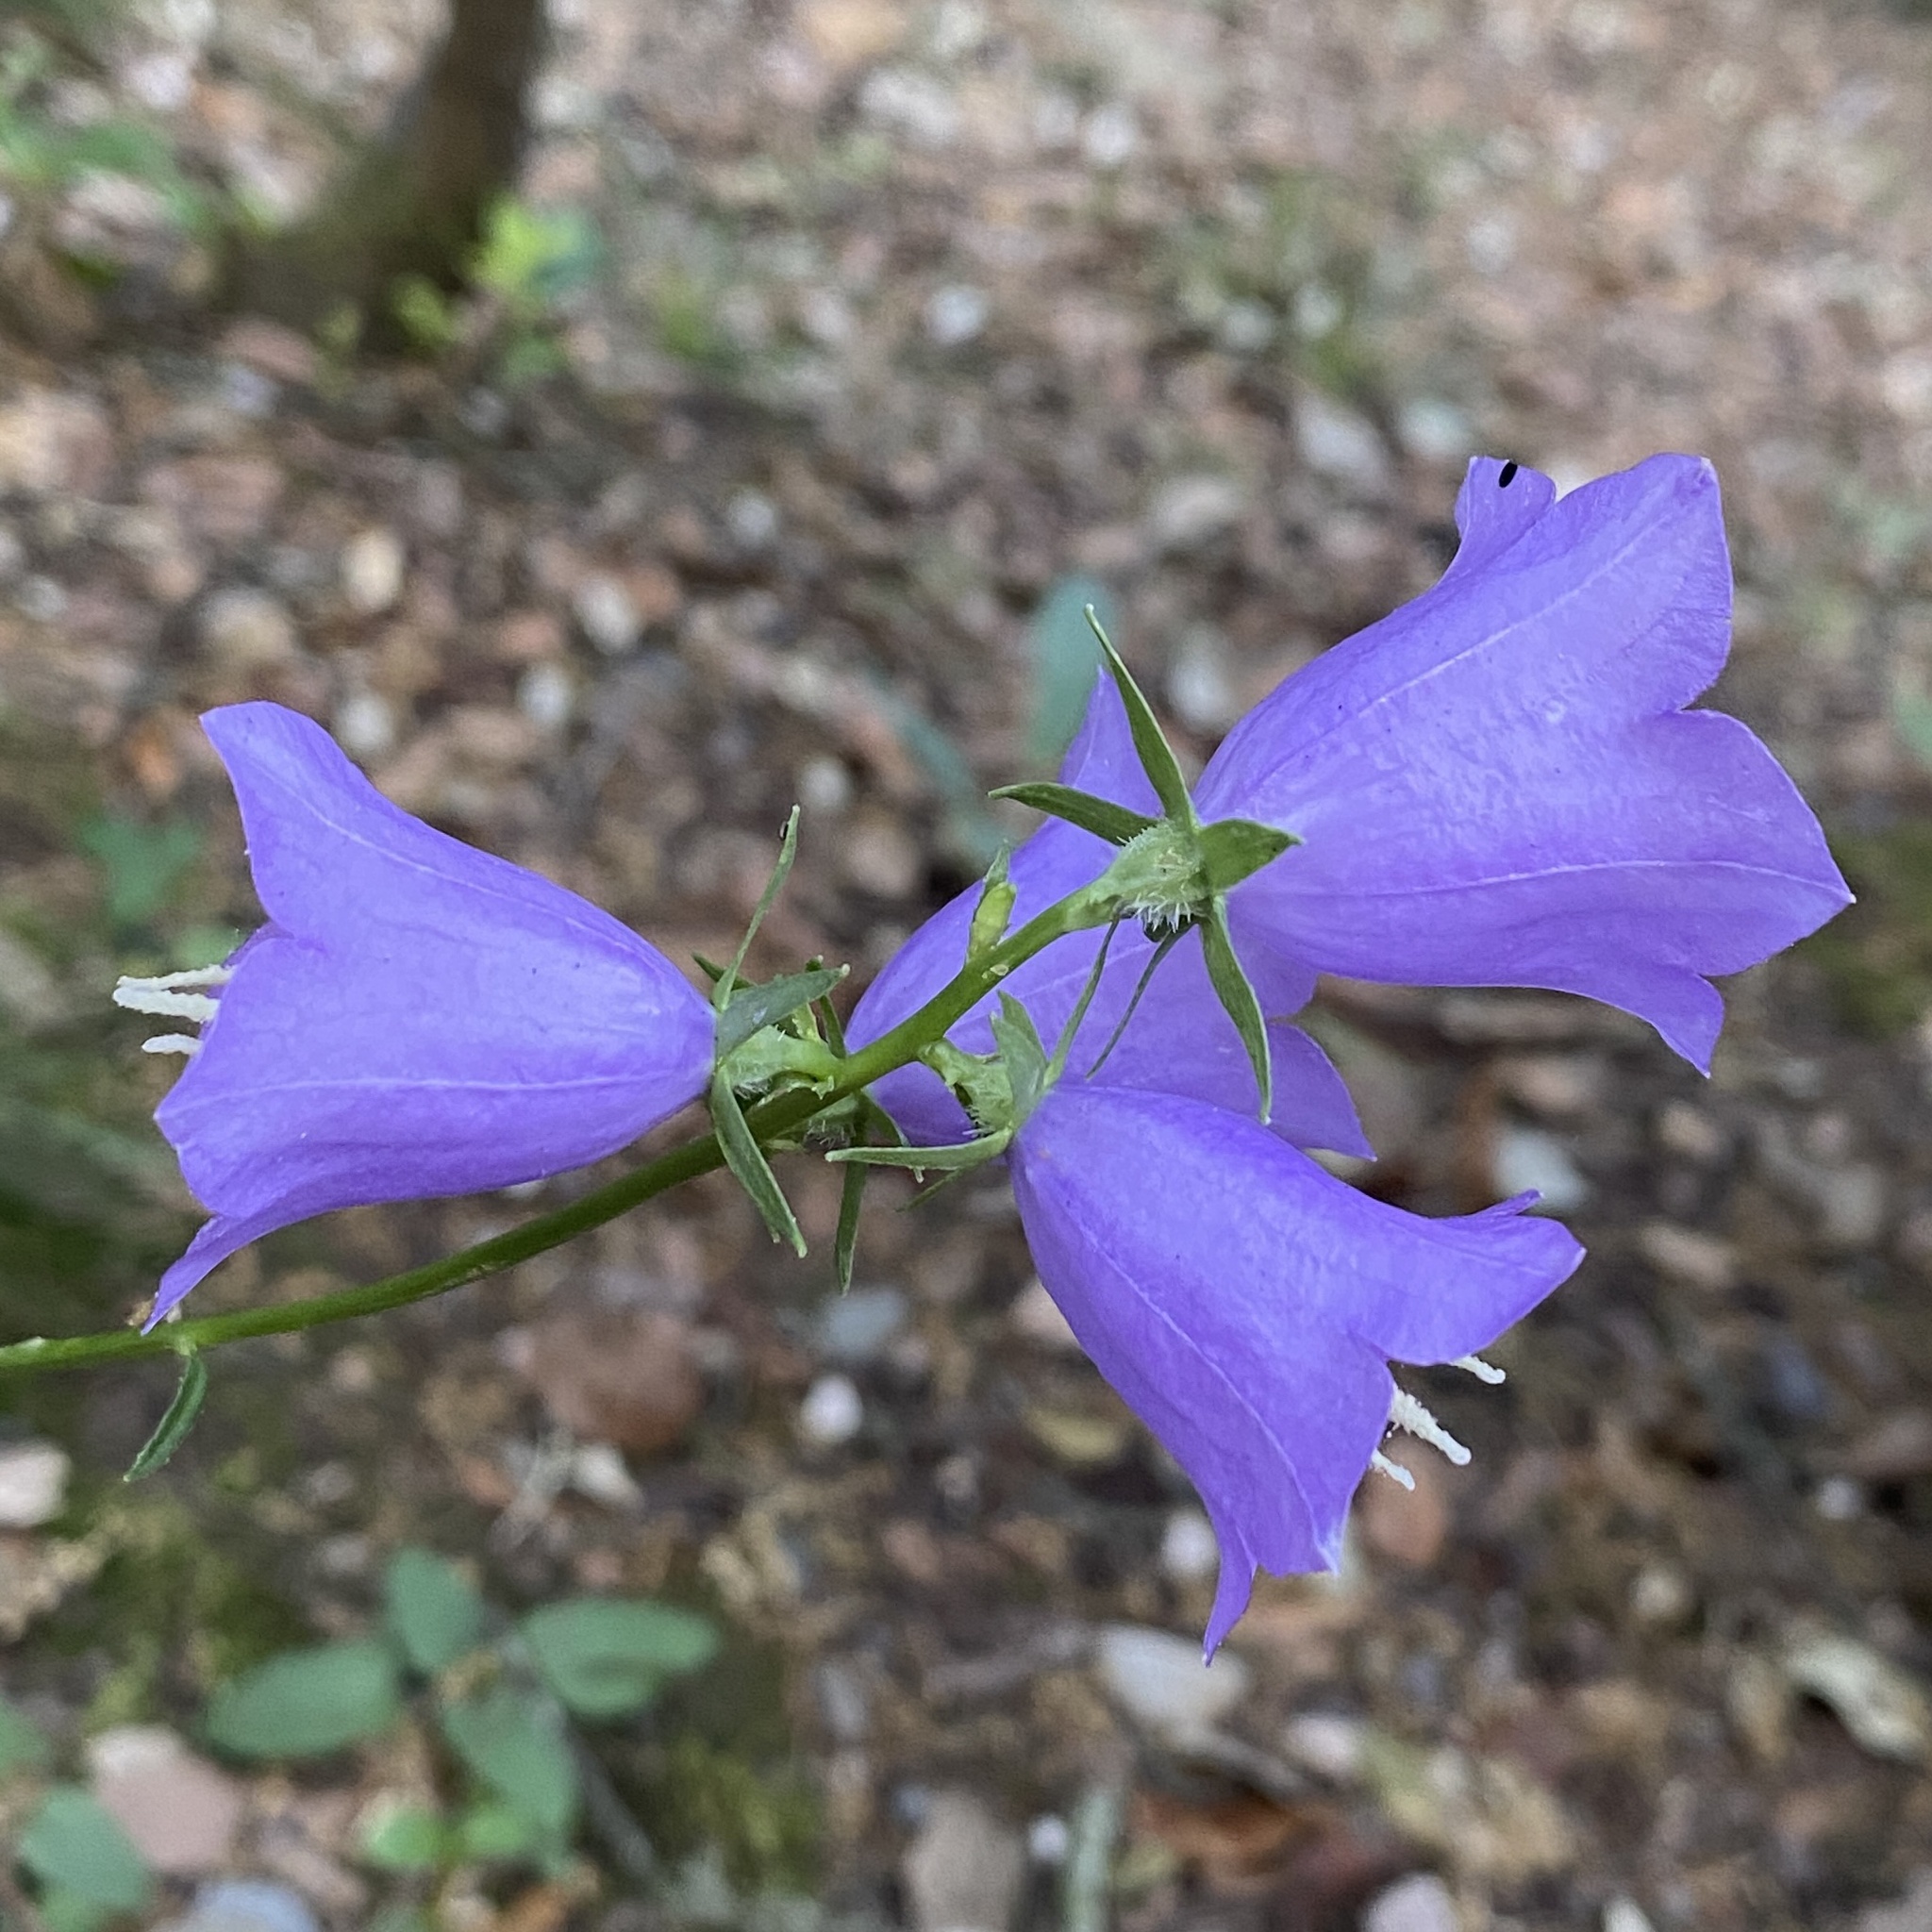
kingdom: Plantae
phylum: Tracheophyta
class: Magnoliopsida
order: Asterales
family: Campanulaceae
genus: Campanula
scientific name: Campanula persicifolia
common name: Peach-leaved bellflower
